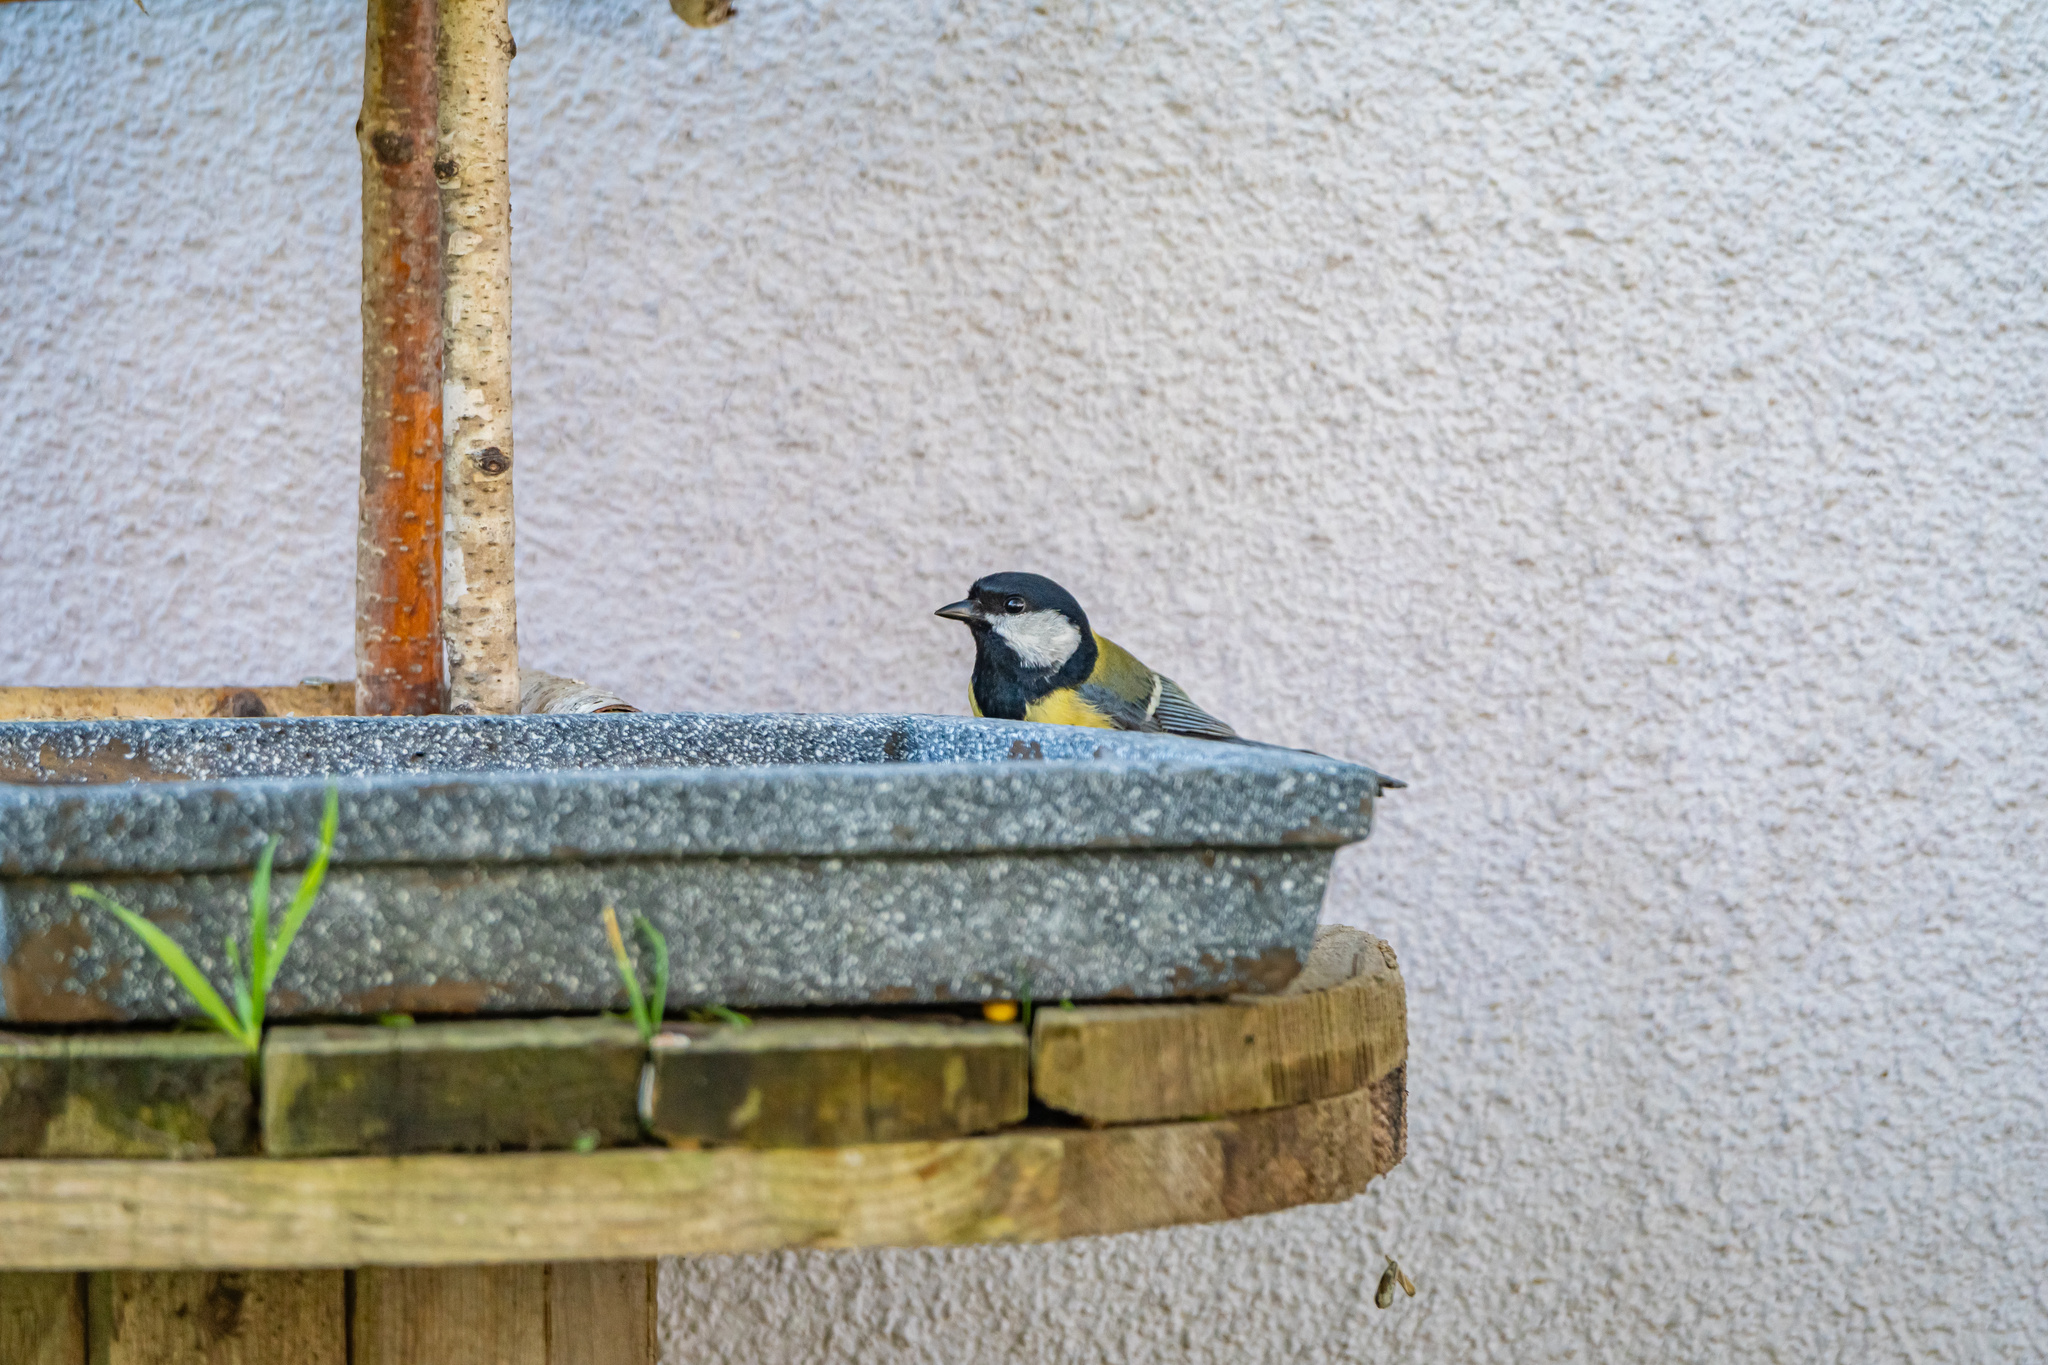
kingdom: Animalia
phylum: Chordata
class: Aves
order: Passeriformes
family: Paridae
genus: Parus
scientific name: Parus major
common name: Great tit
